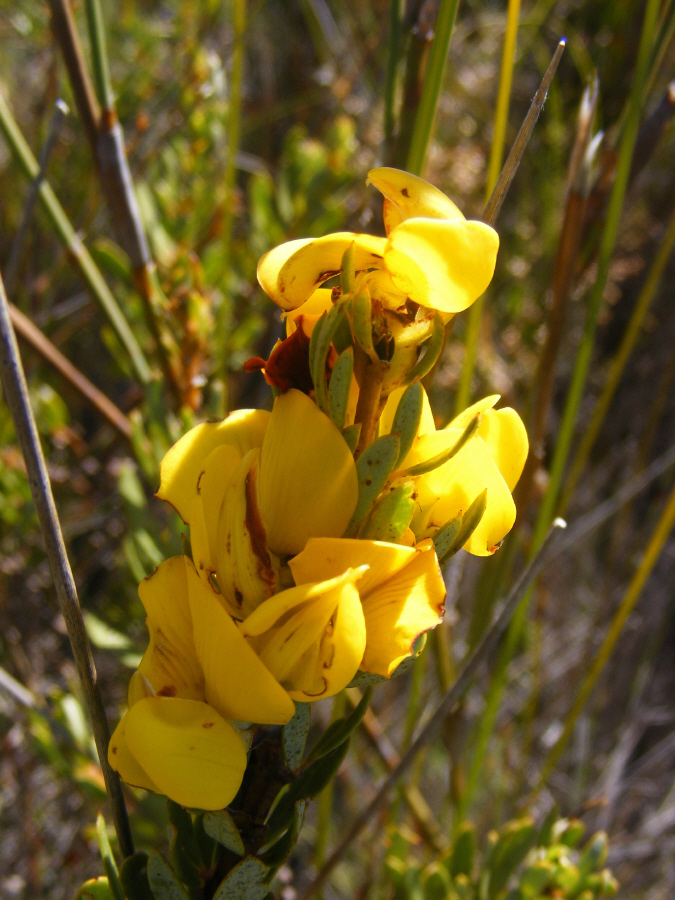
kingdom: Plantae
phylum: Tracheophyta
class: Magnoliopsida
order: Fabales
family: Fabaceae
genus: Cyclopia
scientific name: Cyclopia intermedia
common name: Mountain tea
